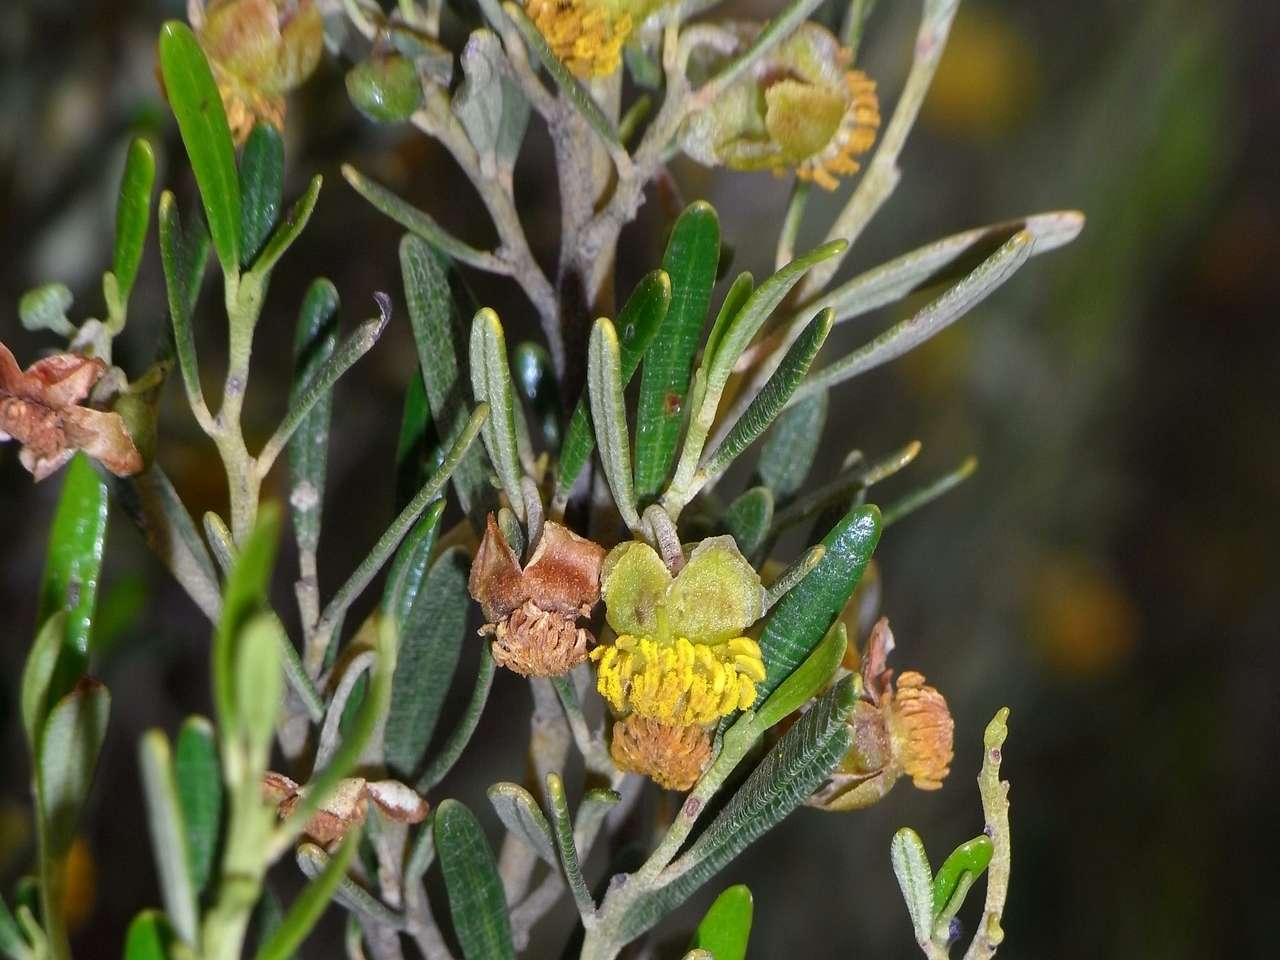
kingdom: Plantae
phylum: Tracheophyta
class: Magnoliopsida
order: Malpighiales
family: Euphorbiaceae
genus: Beyeria
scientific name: Beyeria opaca
